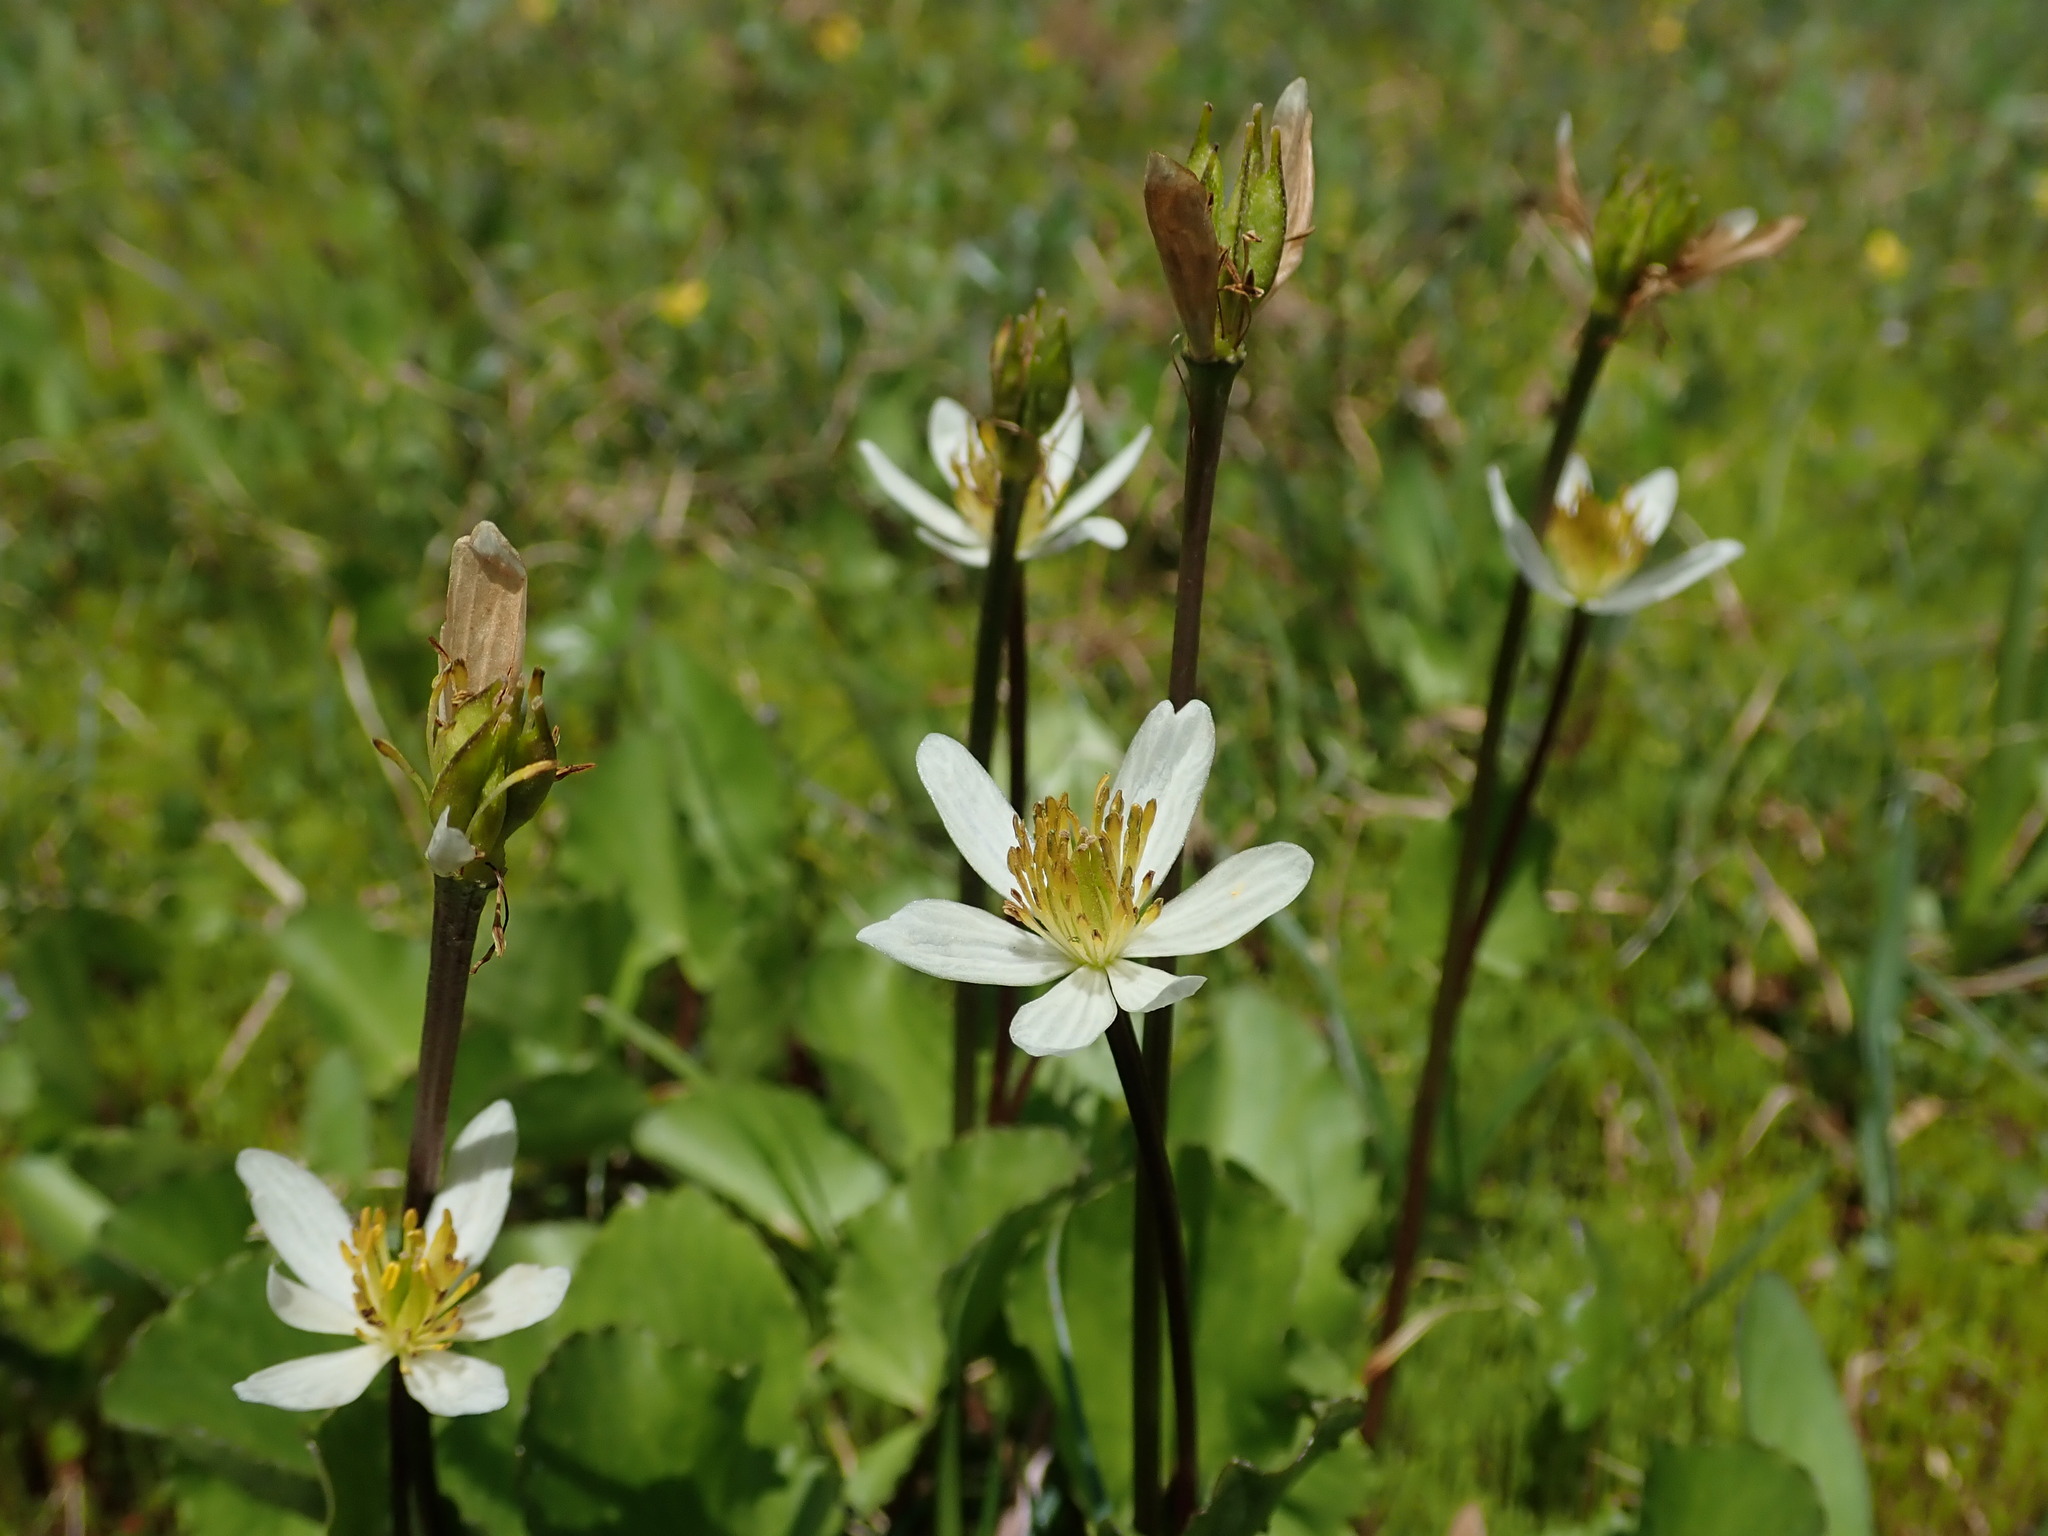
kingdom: Plantae
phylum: Tracheophyta
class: Magnoliopsida
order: Ranunculales
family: Ranunculaceae
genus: Caltha
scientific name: Caltha leptosepala
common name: Elkslip
